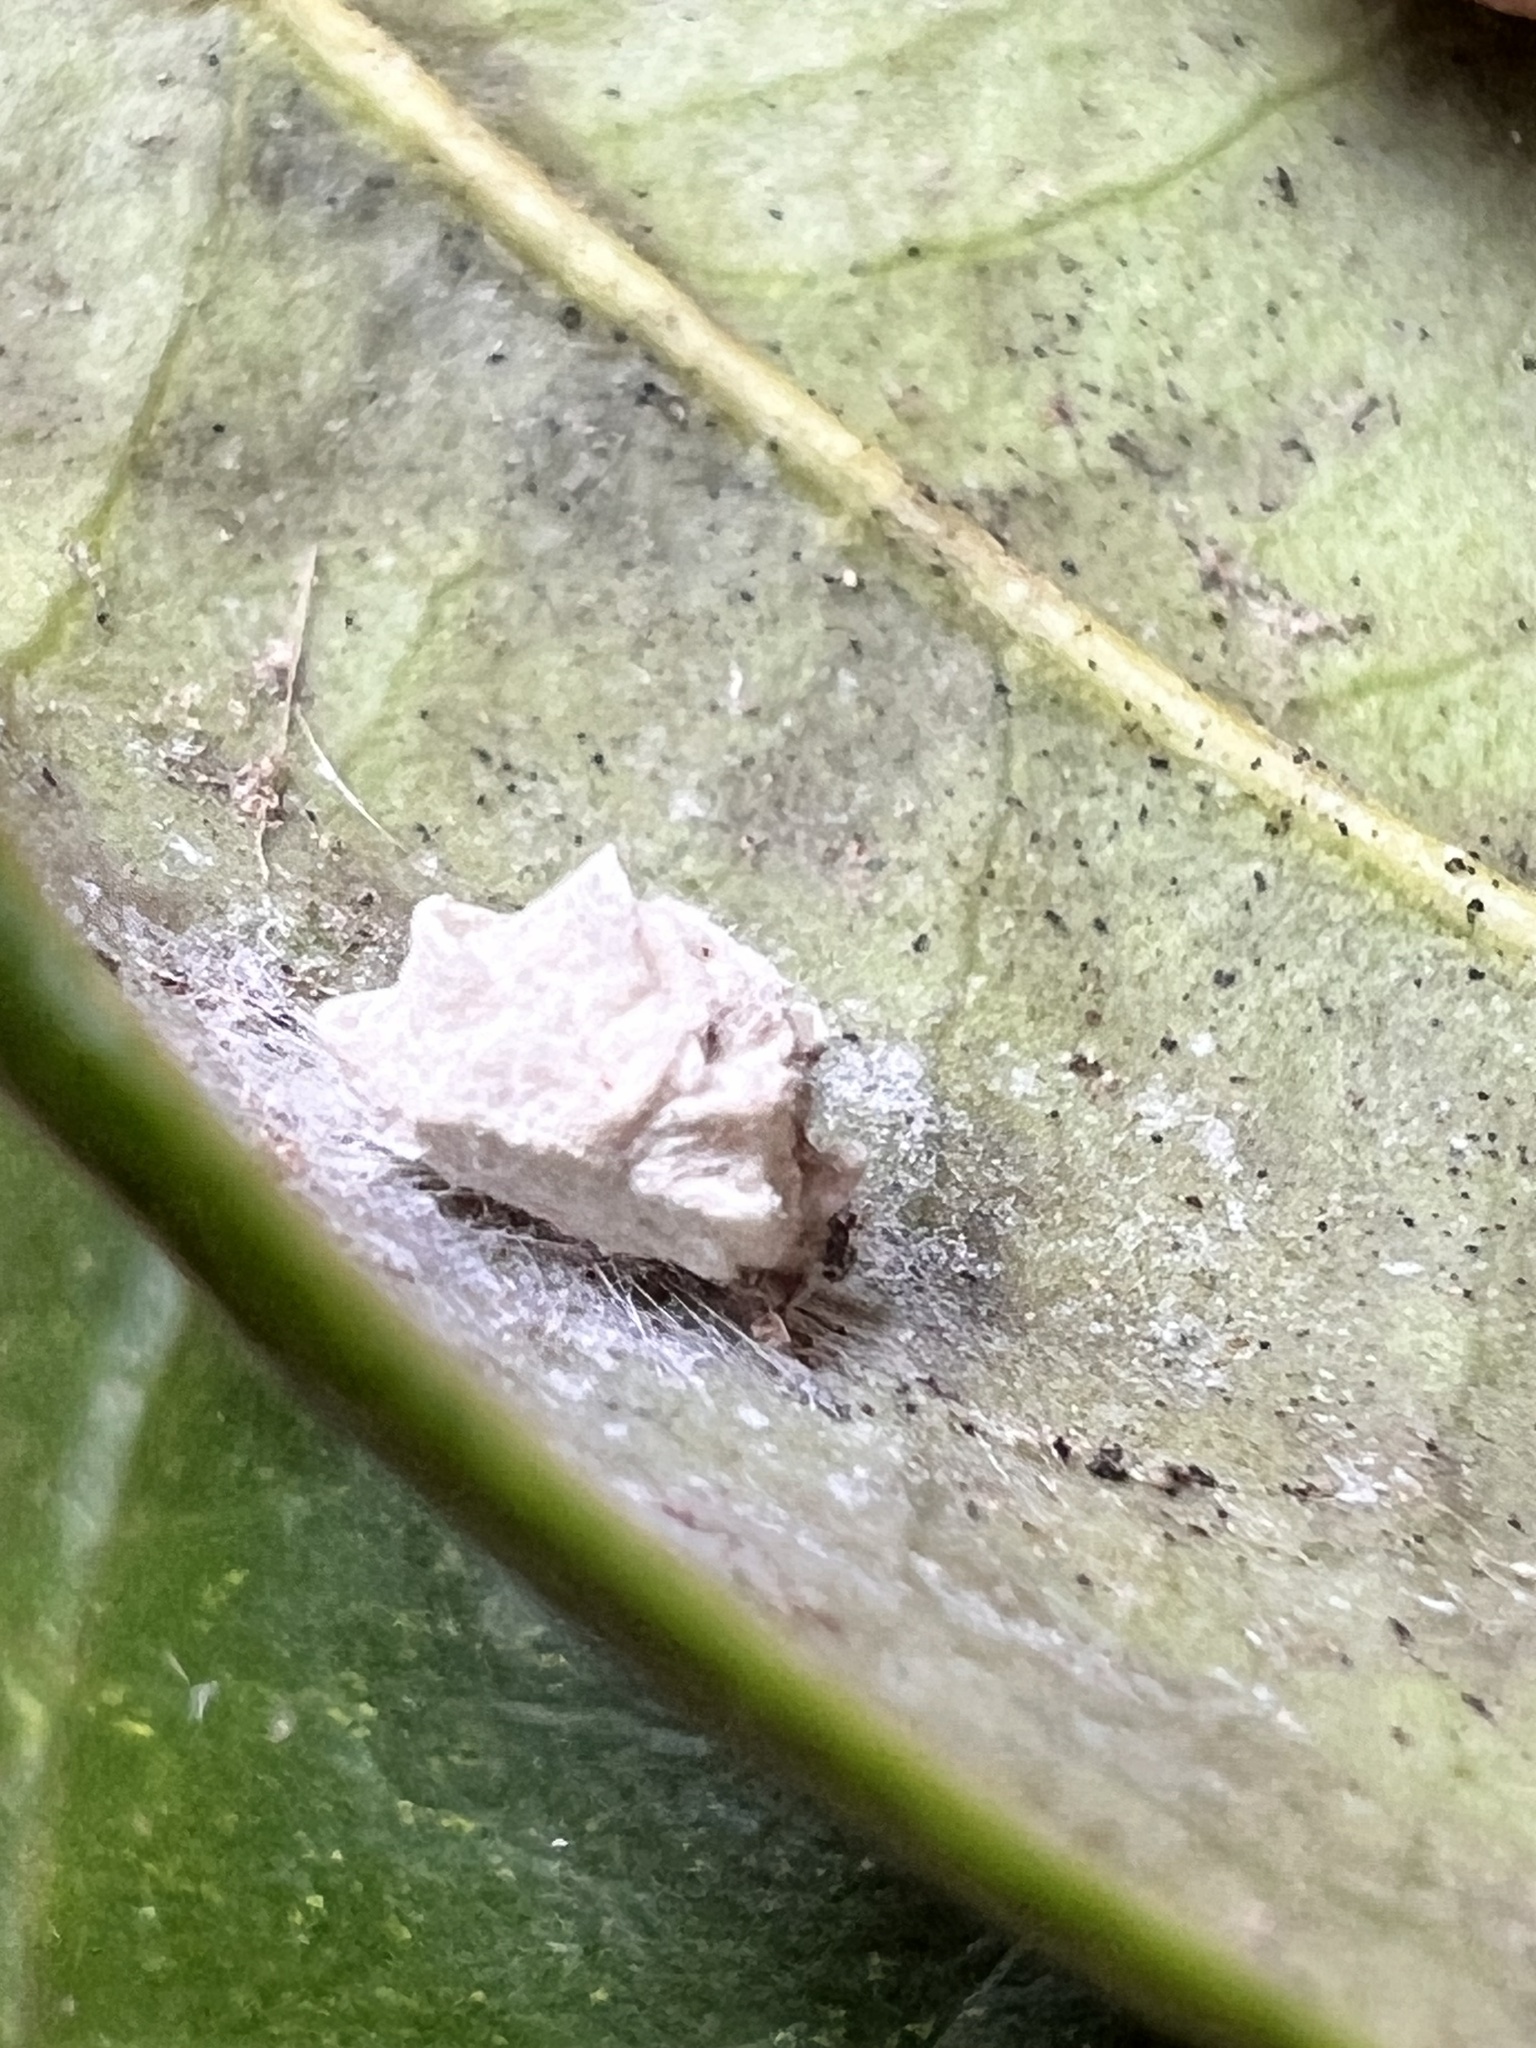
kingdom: Animalia
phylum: Arthropoda
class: Insecta
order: Lepidoptera
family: Epipyropidae
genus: Fulgoraecia
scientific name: Fulgoraecia exigua
